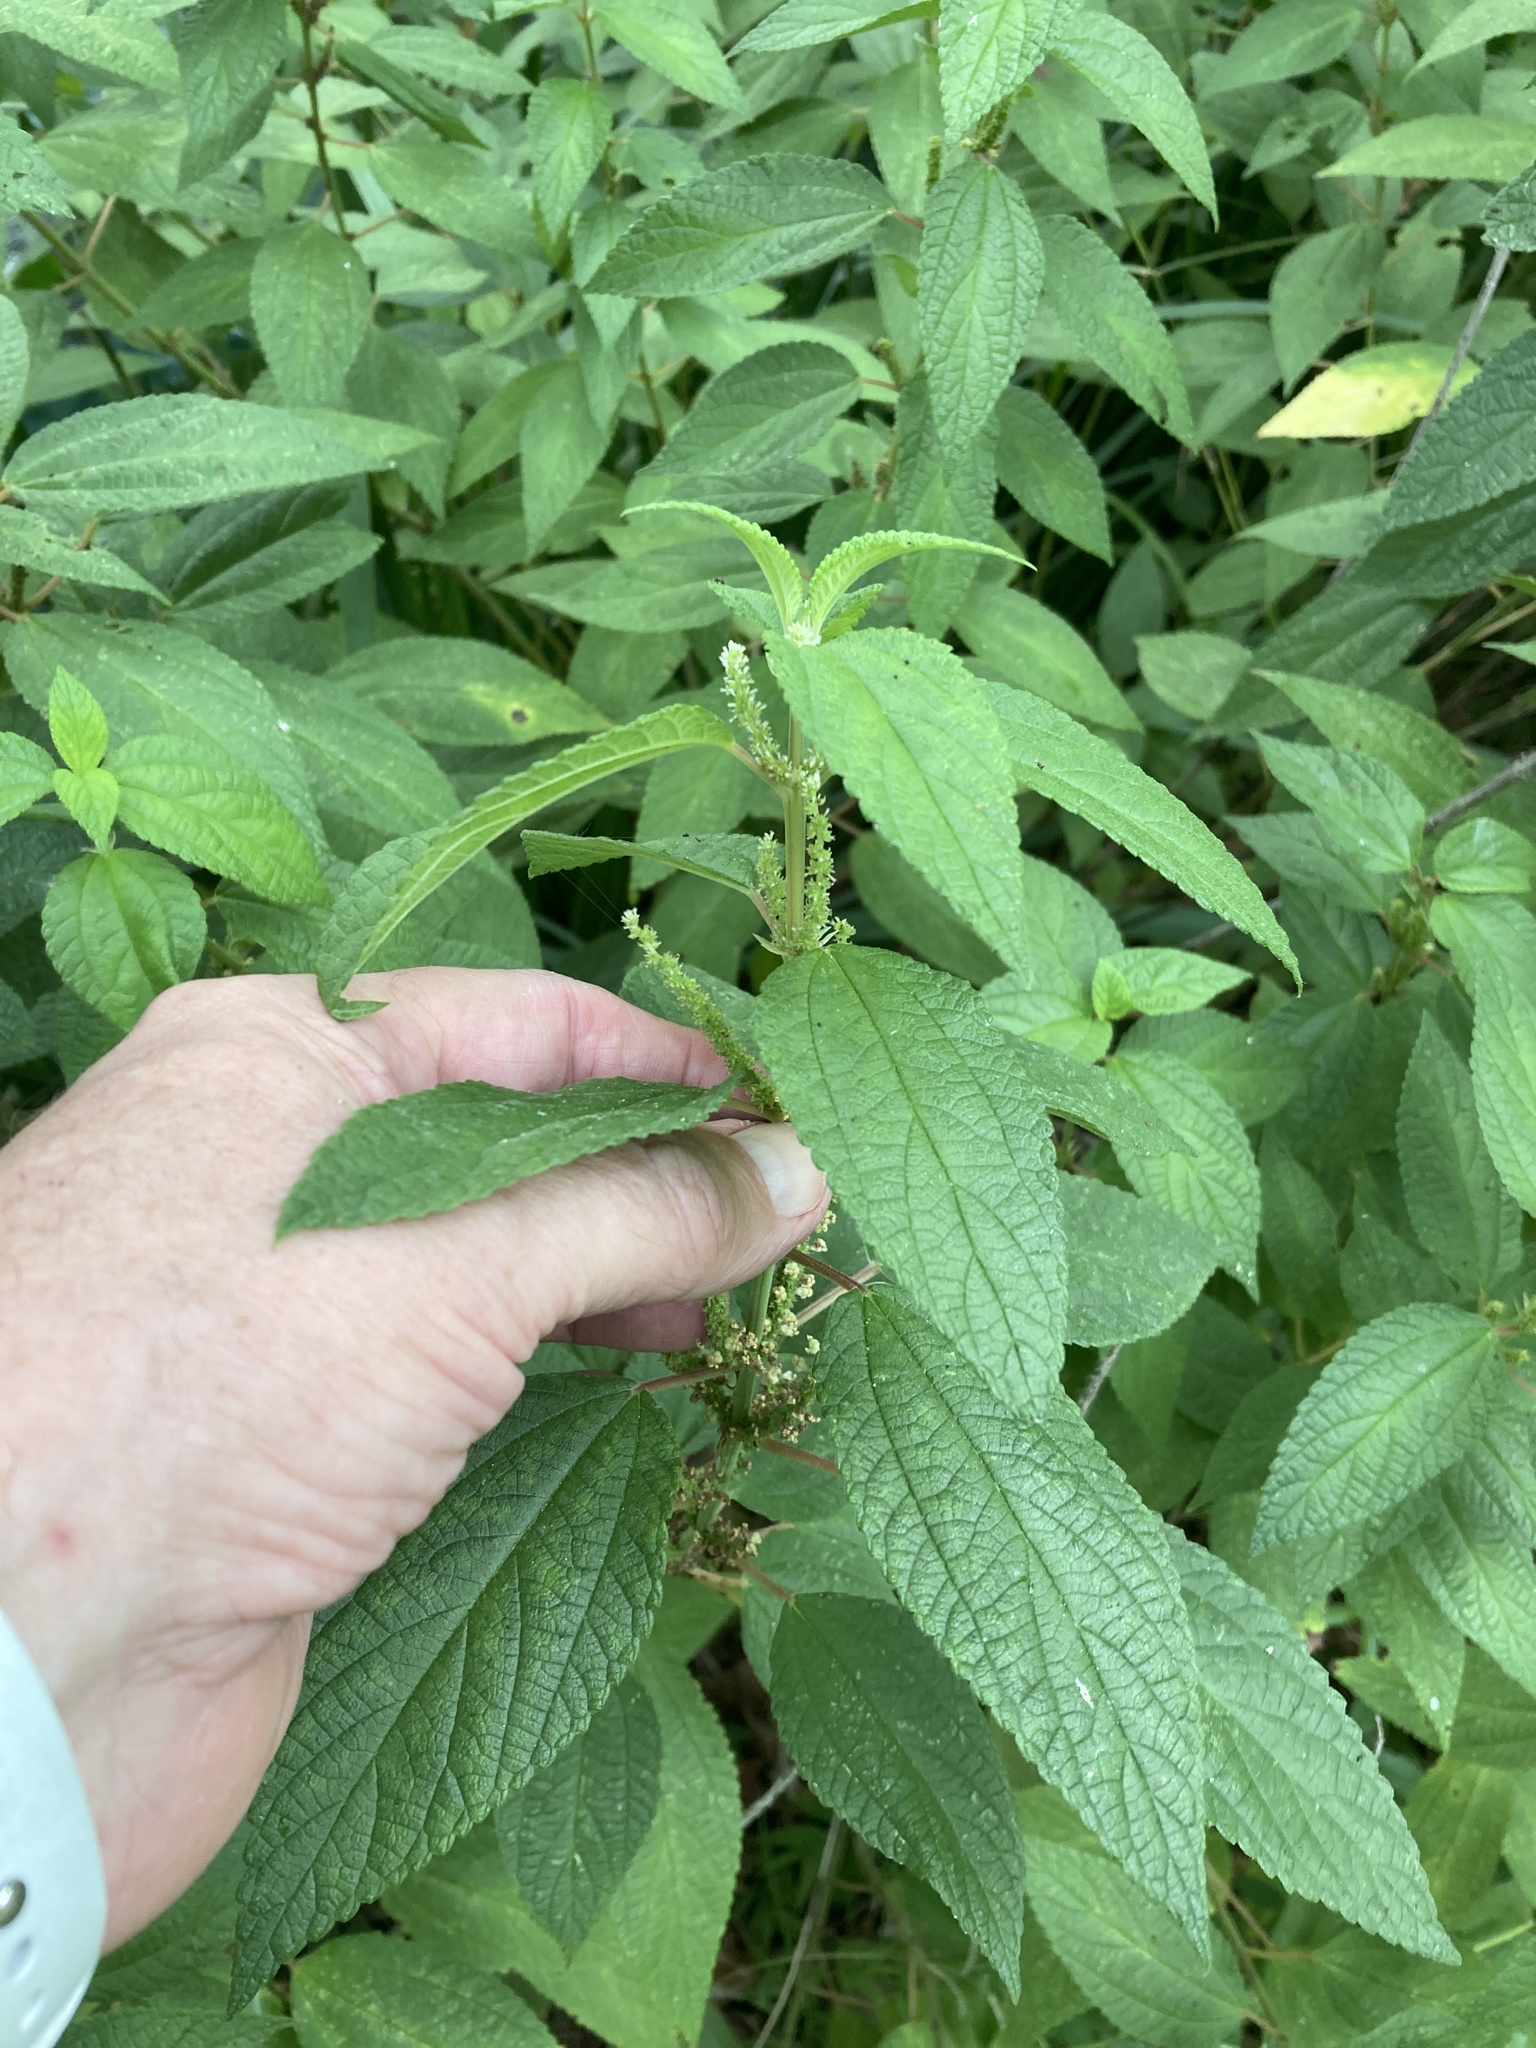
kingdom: Plantae
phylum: Tracheophyta
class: Magnoliopsida
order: Rosales
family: Urticaceae
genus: Boehmeria
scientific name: Boehmeria cylindrica
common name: Bog-hemp
